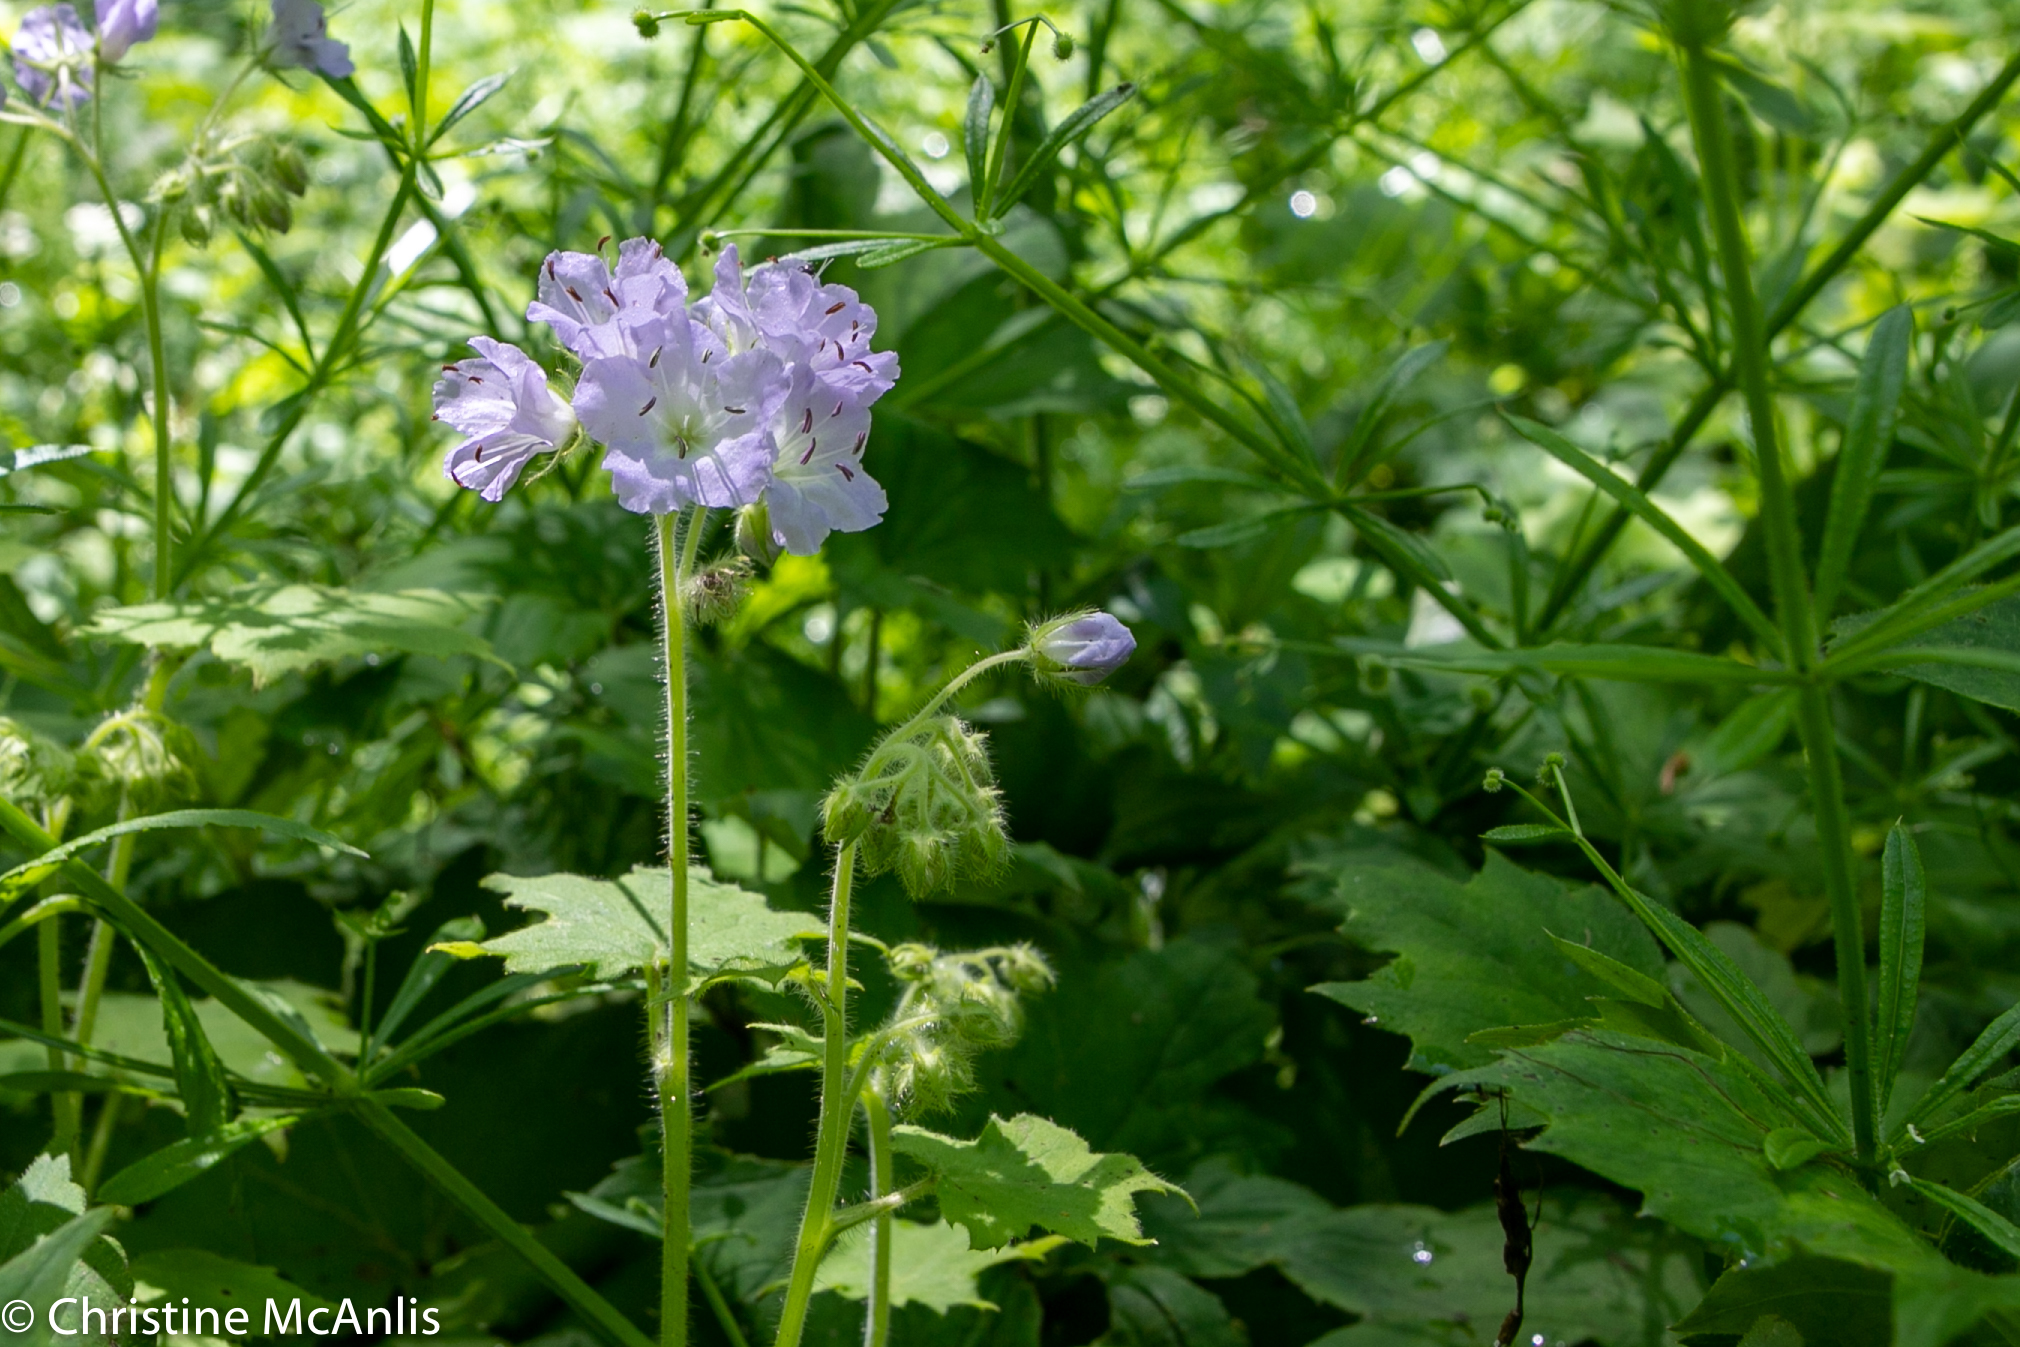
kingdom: Plantae
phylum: Tracheophyta
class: Magnoliopsida
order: Boraginales
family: Hydrophyllaceae
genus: Hydrophyllum
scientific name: Hydrophyllum appendiculatum
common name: Appendaged waterleaf
